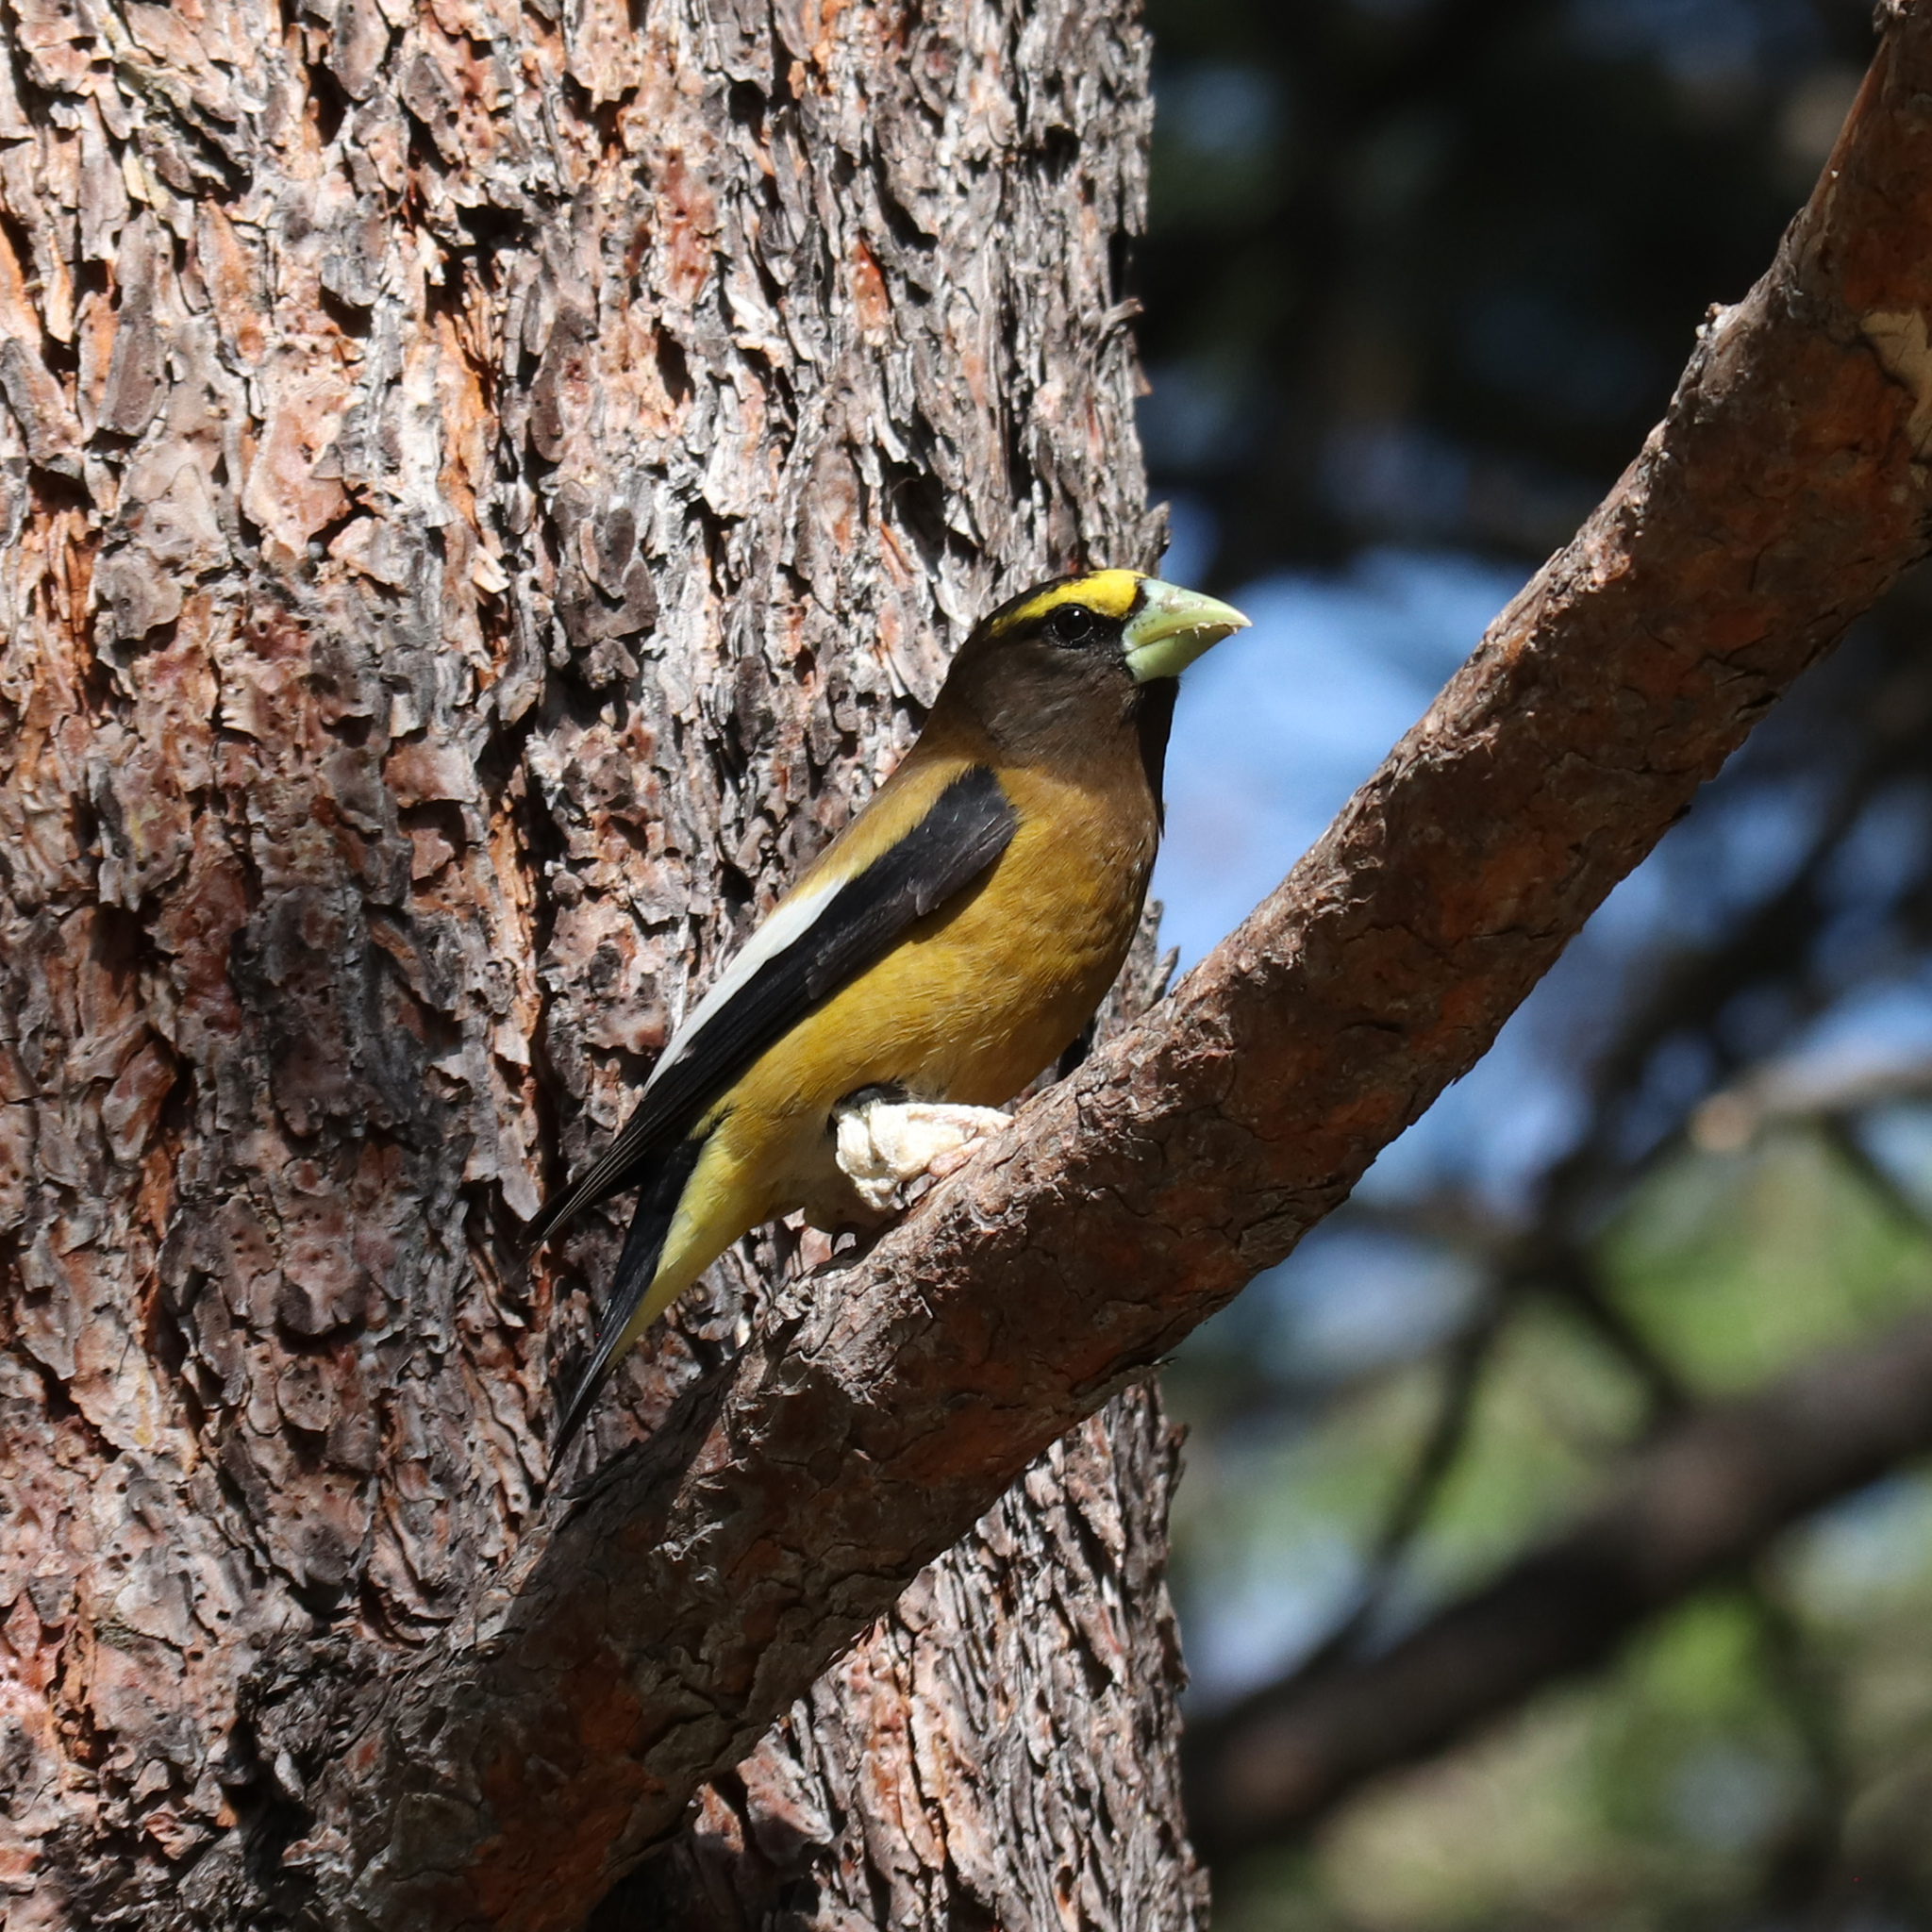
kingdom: Animalia
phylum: Chordata
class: Aves
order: Passeriformes
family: Fringillidae
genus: Hesperiphona
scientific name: Hesperiphona vespertina
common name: Evening grosbeak
